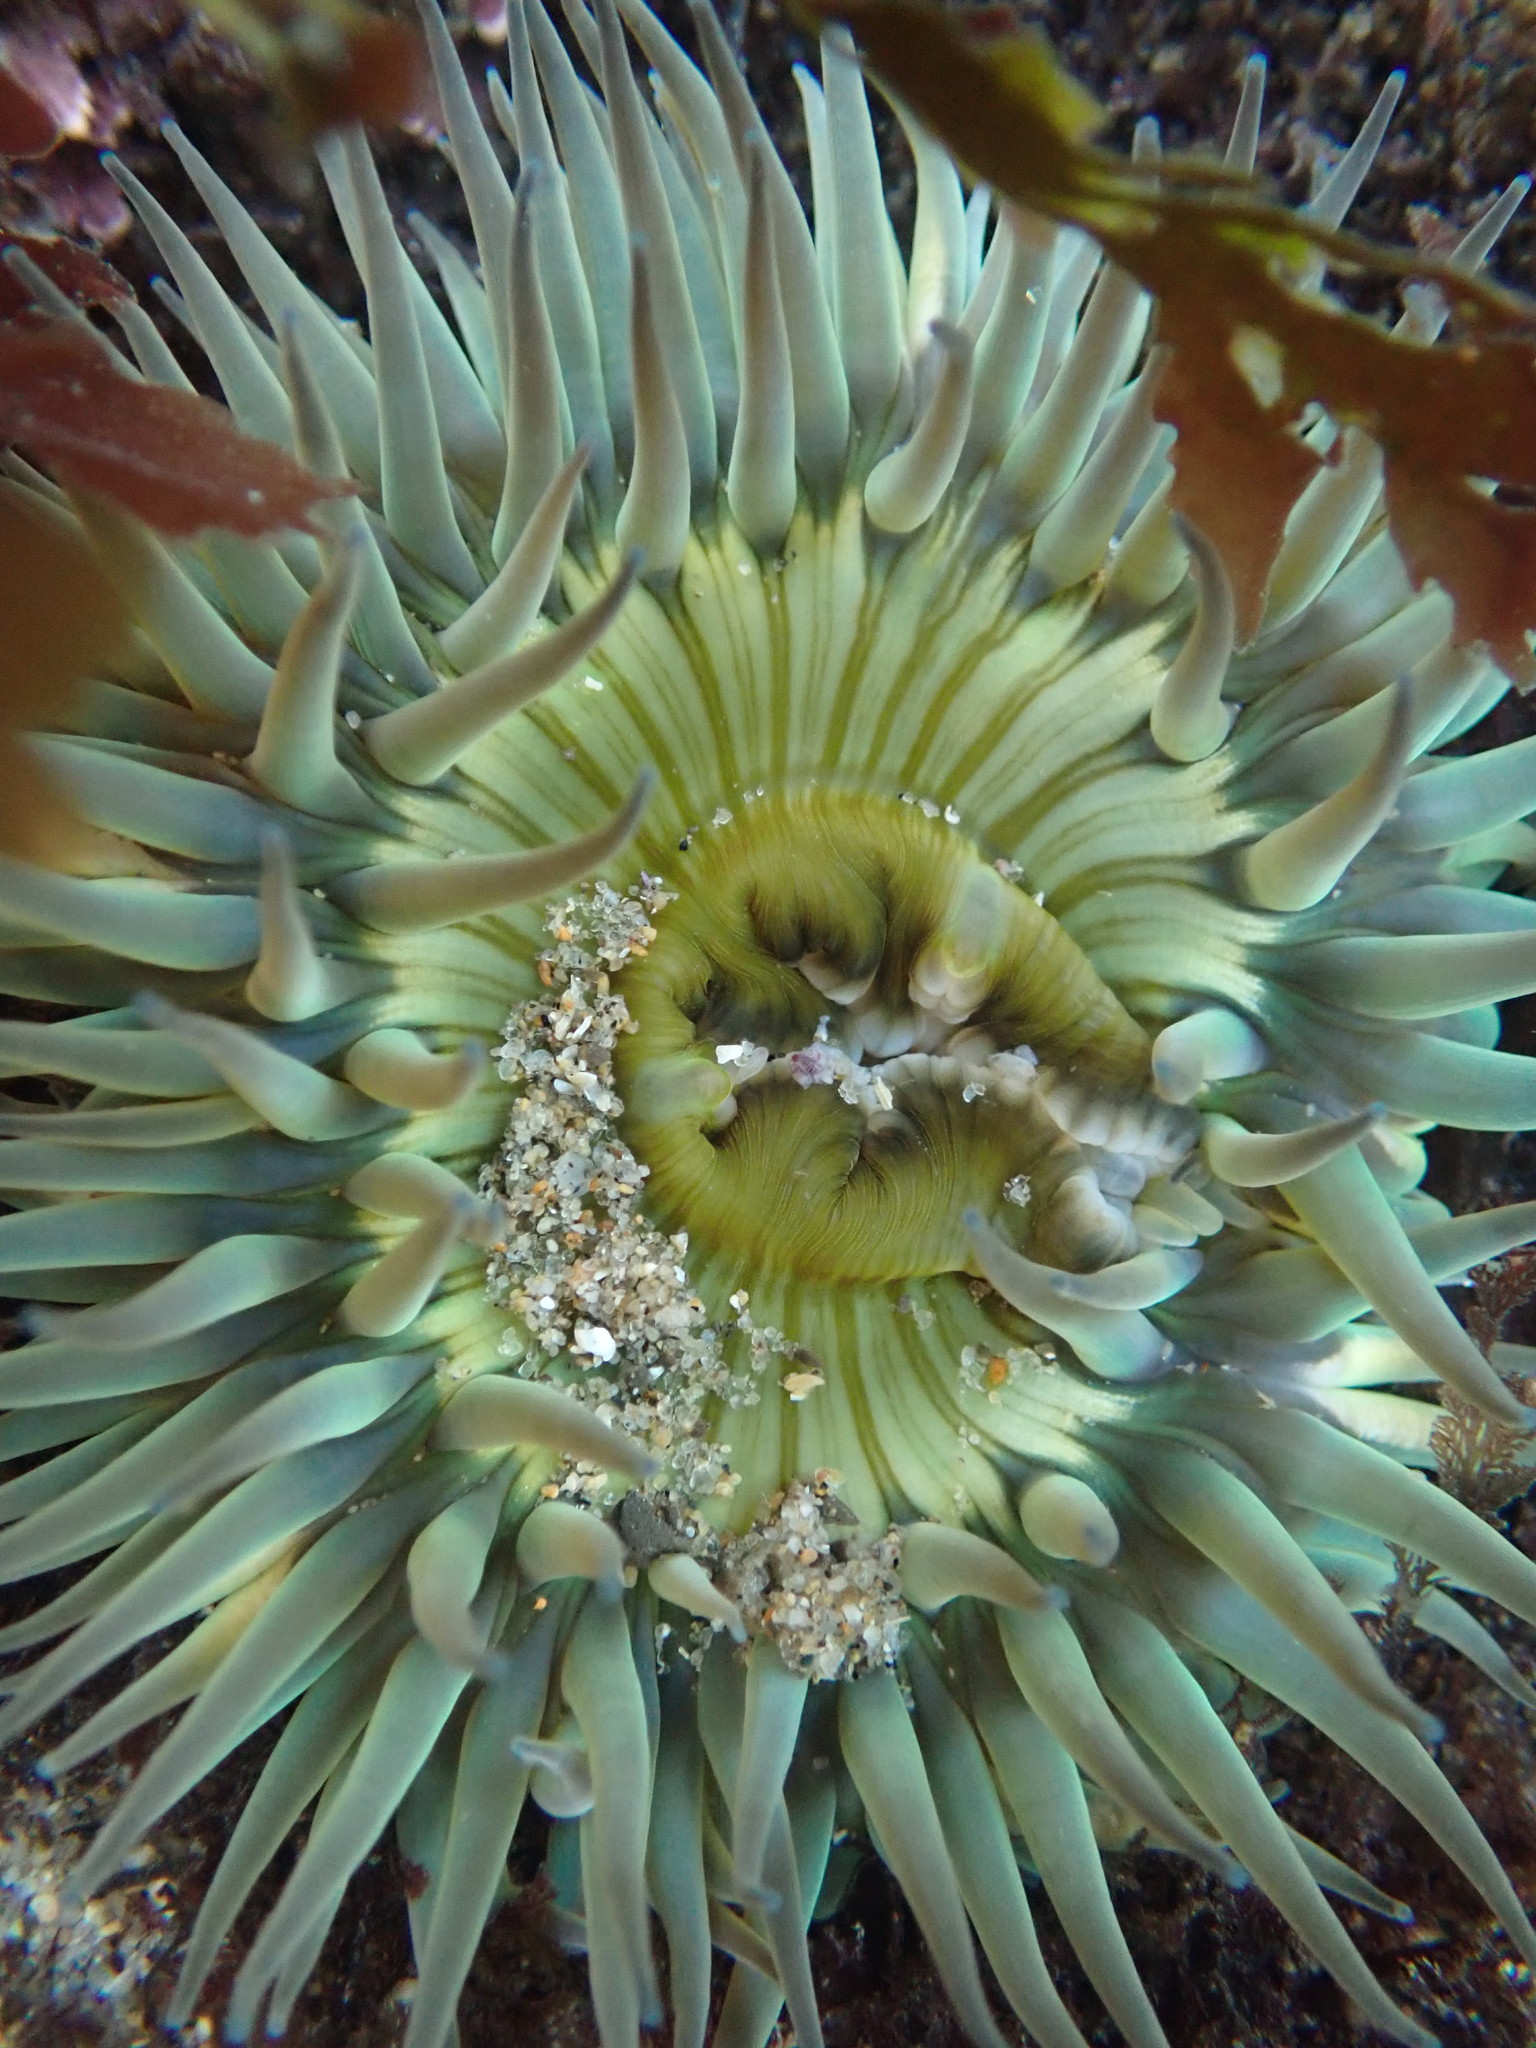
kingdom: Animalia
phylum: Cnidaria
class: Anthozoa
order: Actiniaria
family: Actiniidae
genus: Anthopleura
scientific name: Anthopleura sola
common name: Sun anemone
